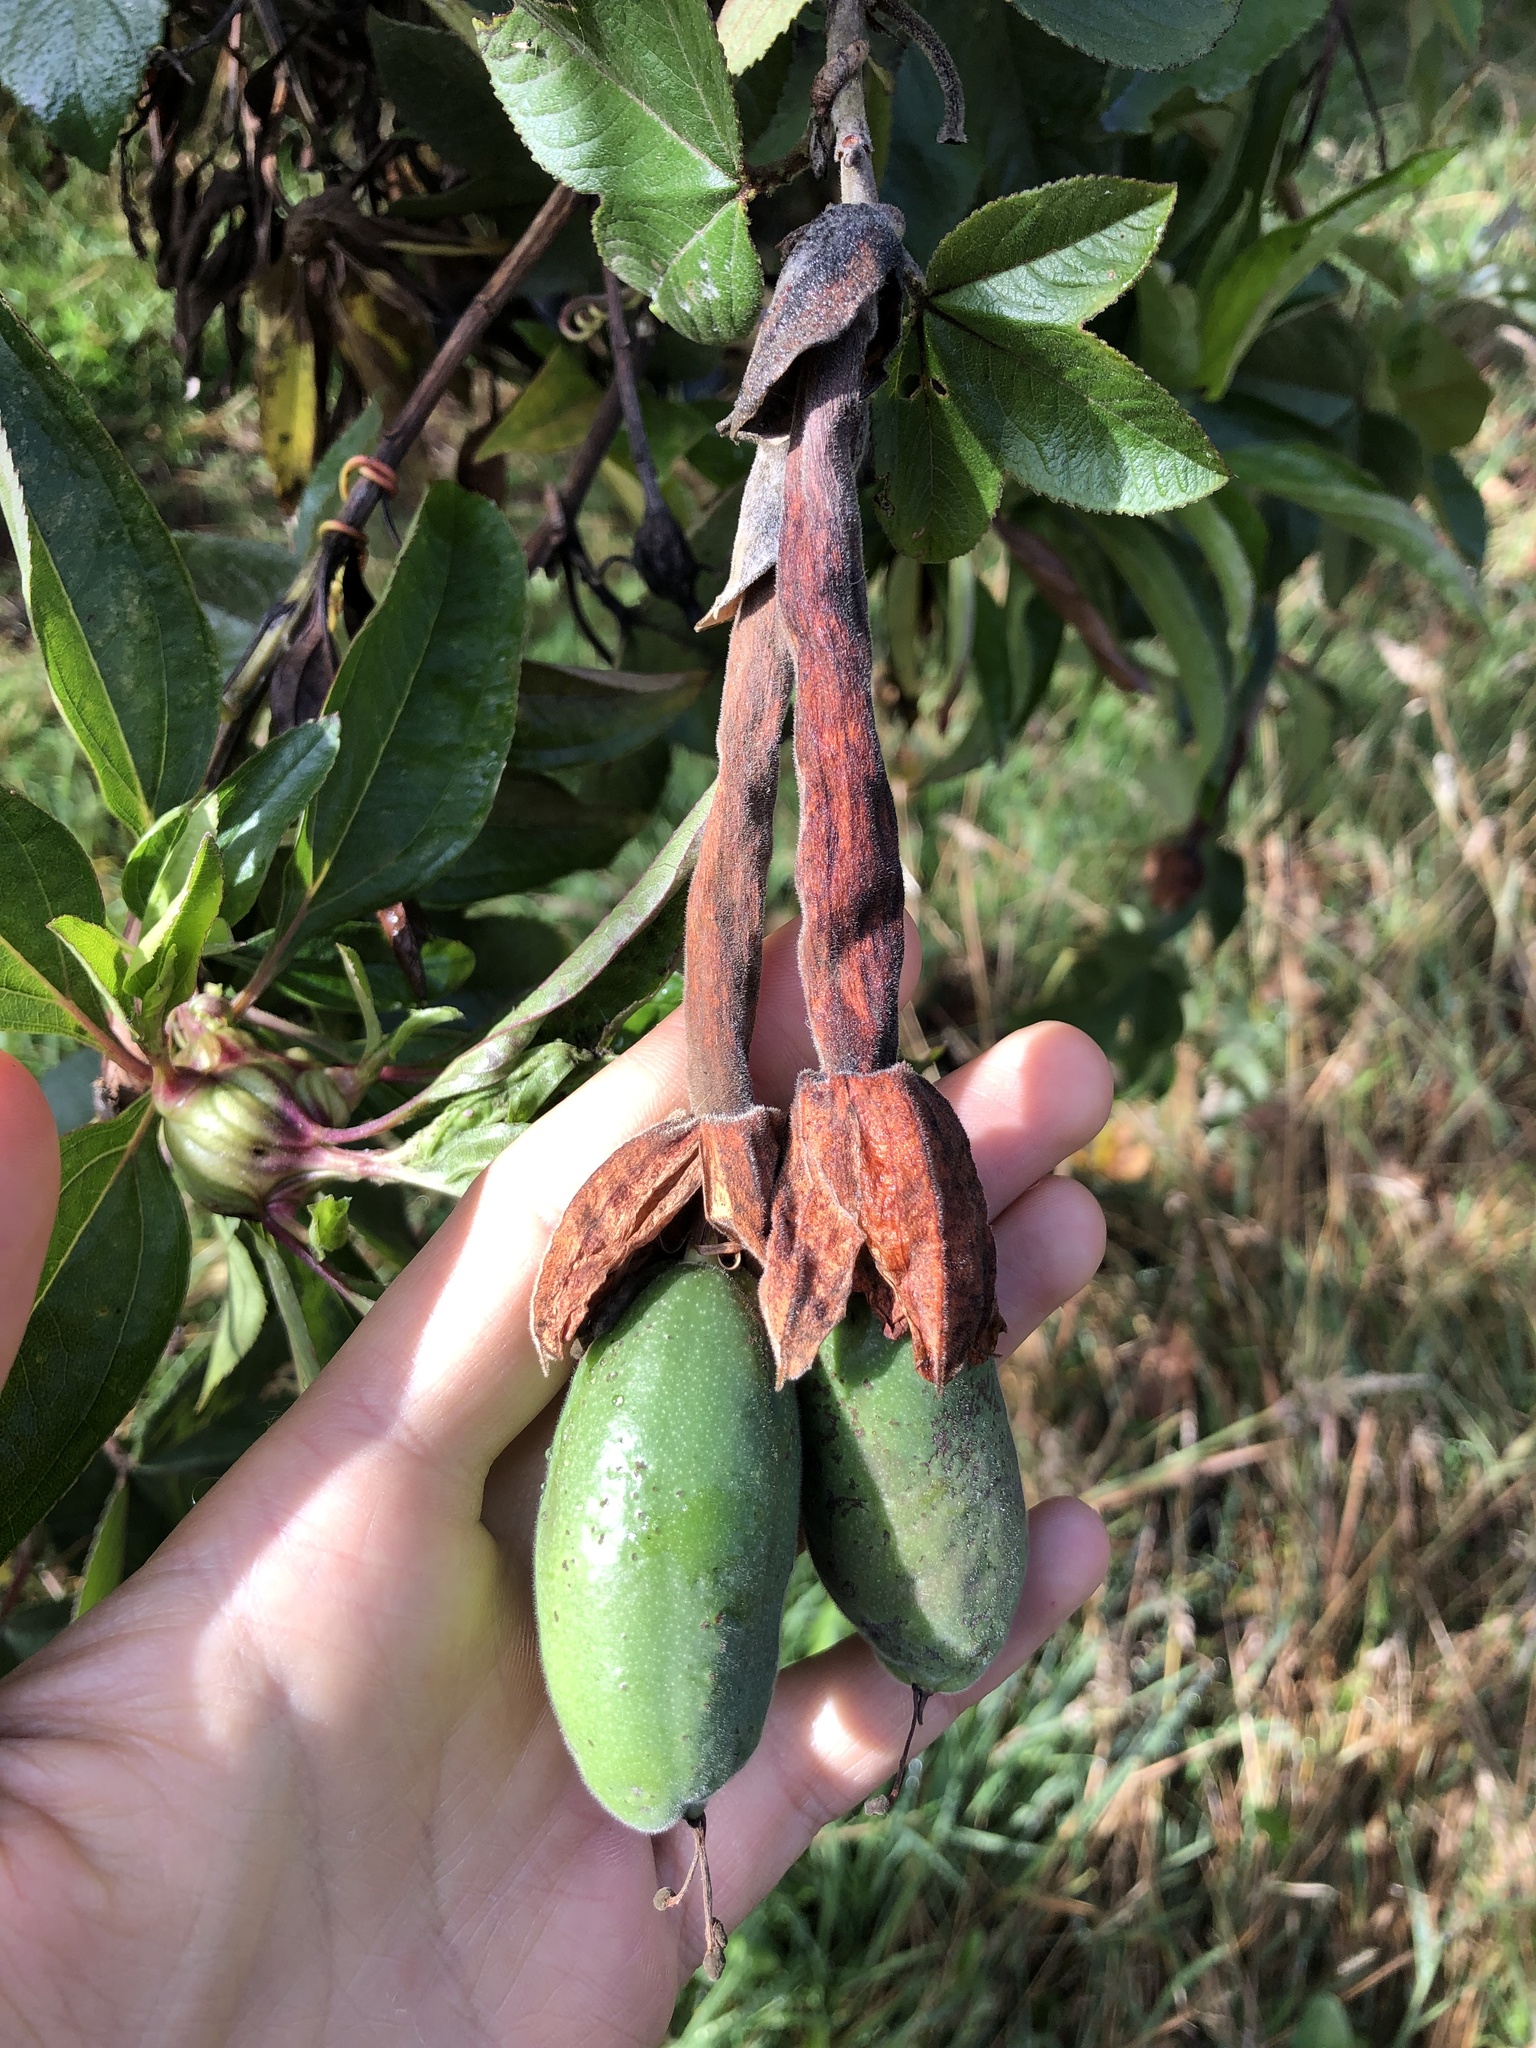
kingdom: Plantae
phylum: Tracheophyta
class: Magnoliopsida
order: Malpighiales
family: Passifloraceae
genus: Passiflora
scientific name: Passiflora tripartita
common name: Banana poka
